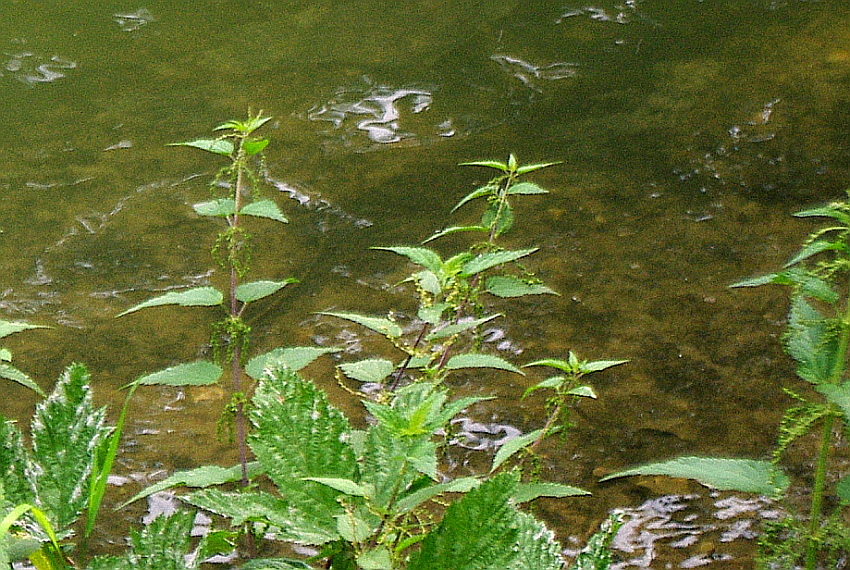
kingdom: Plantae
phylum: Tracheophyta
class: Magnoliopsida
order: Rosales
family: Urticaceae
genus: Urtica
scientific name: Urtica dioica
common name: Common nettle
